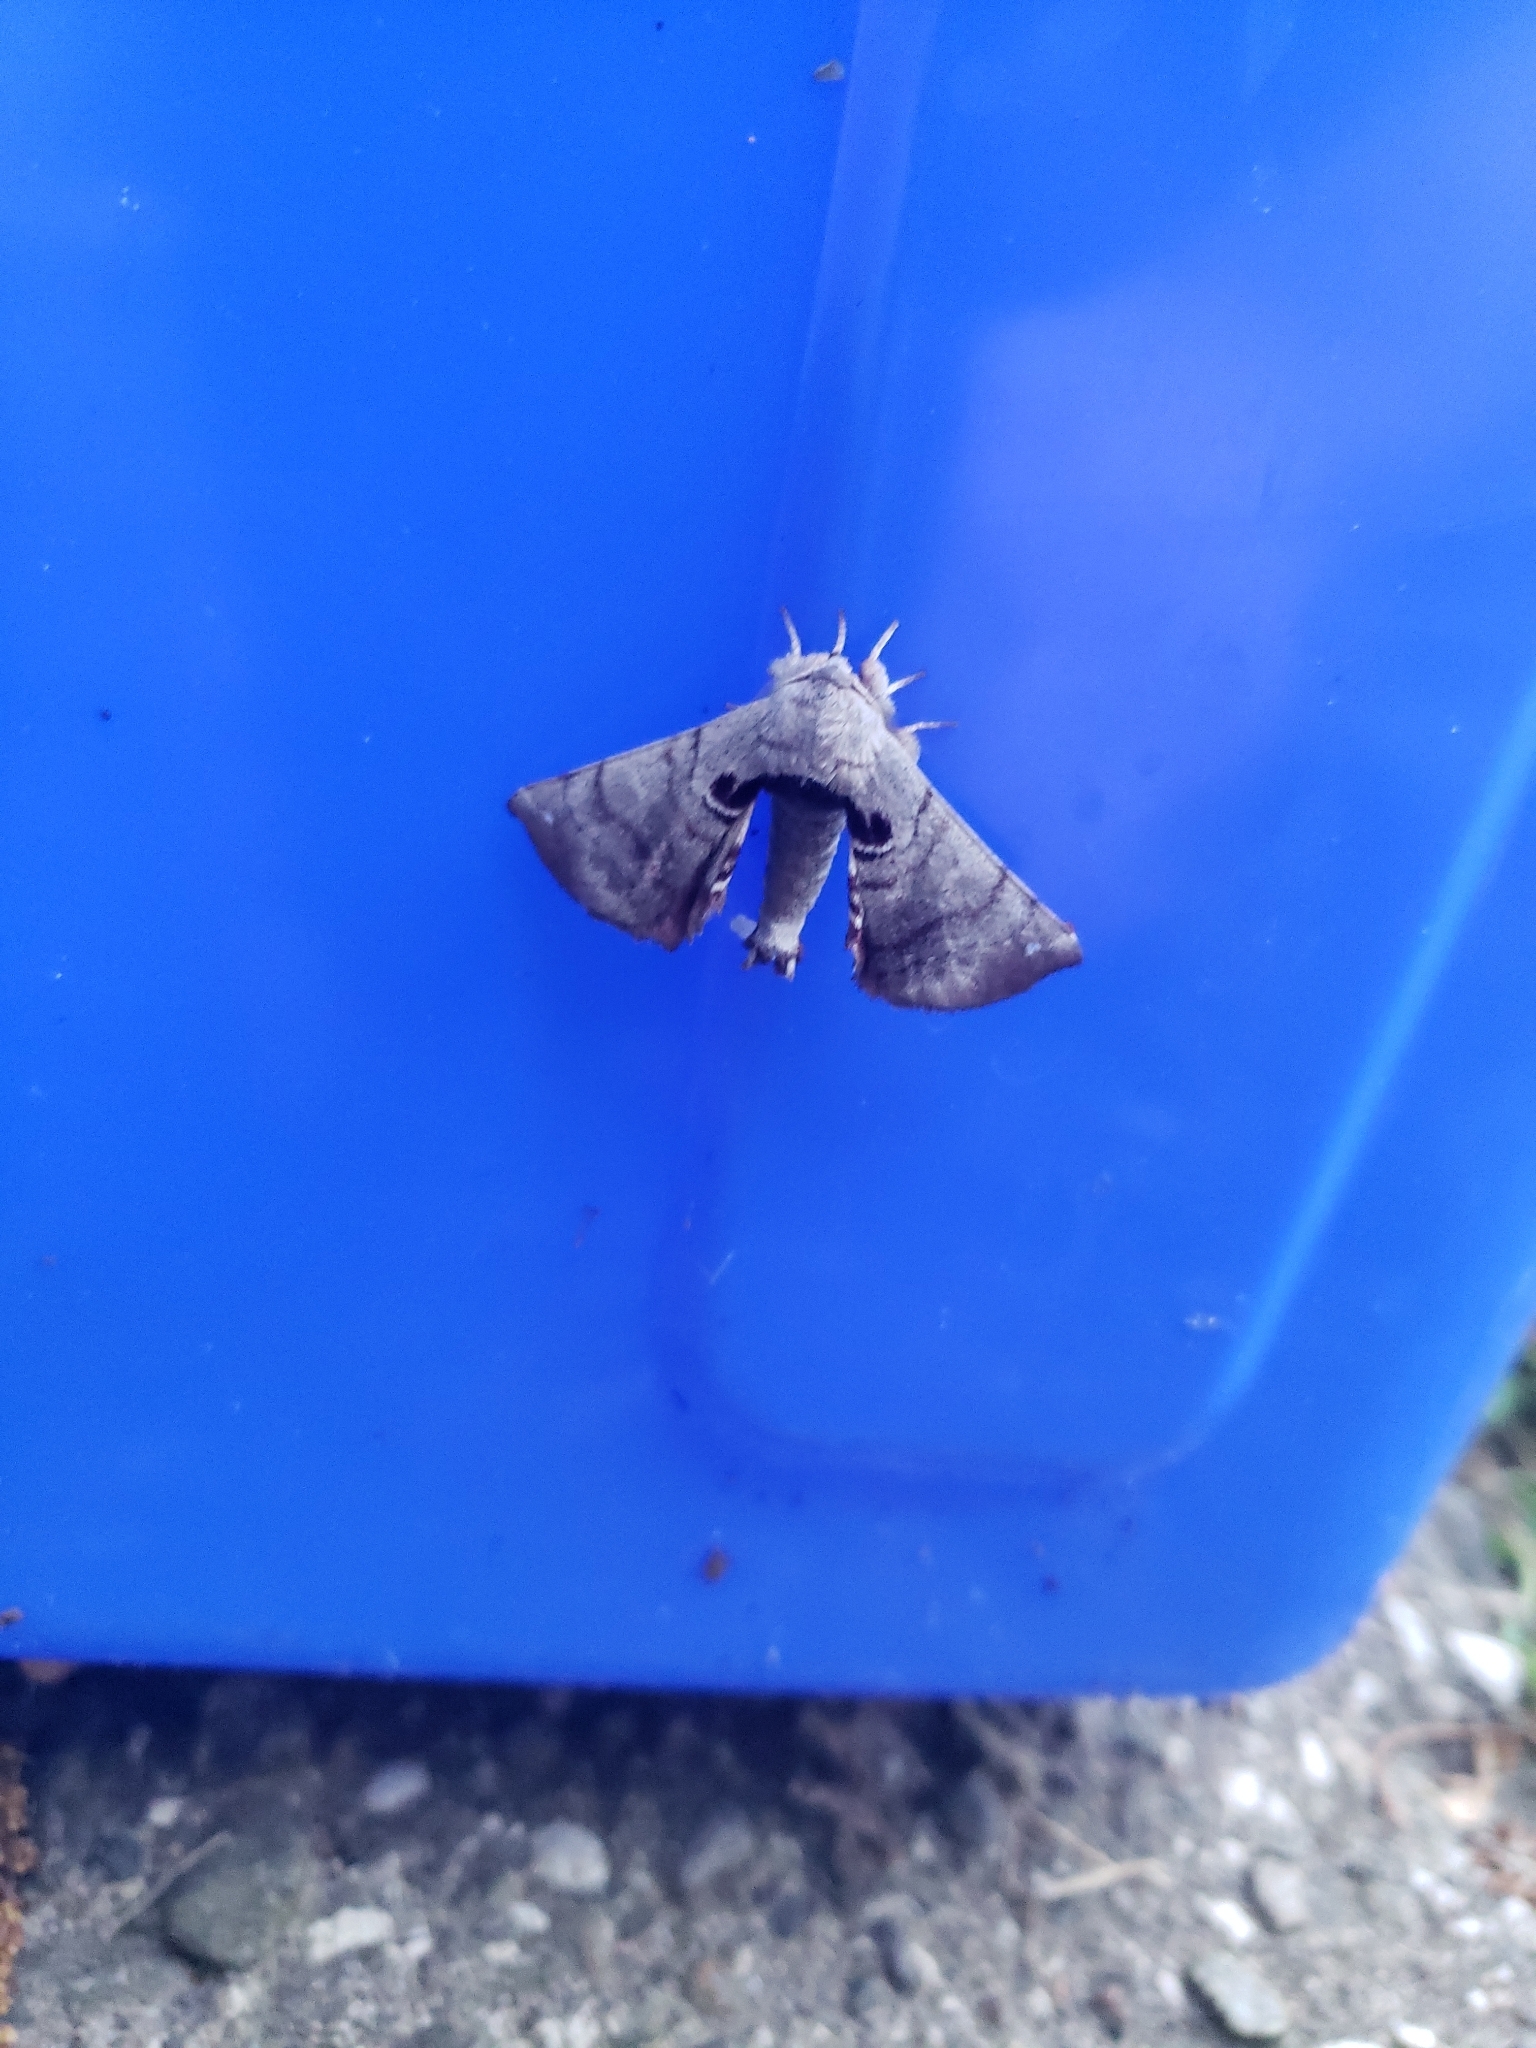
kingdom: Animalia
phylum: Arthropoda
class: Insecta
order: Lepidoptera
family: Apatelodidae
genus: Hygrochroa
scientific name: Hygrochroa Apatelodes torrefacta
